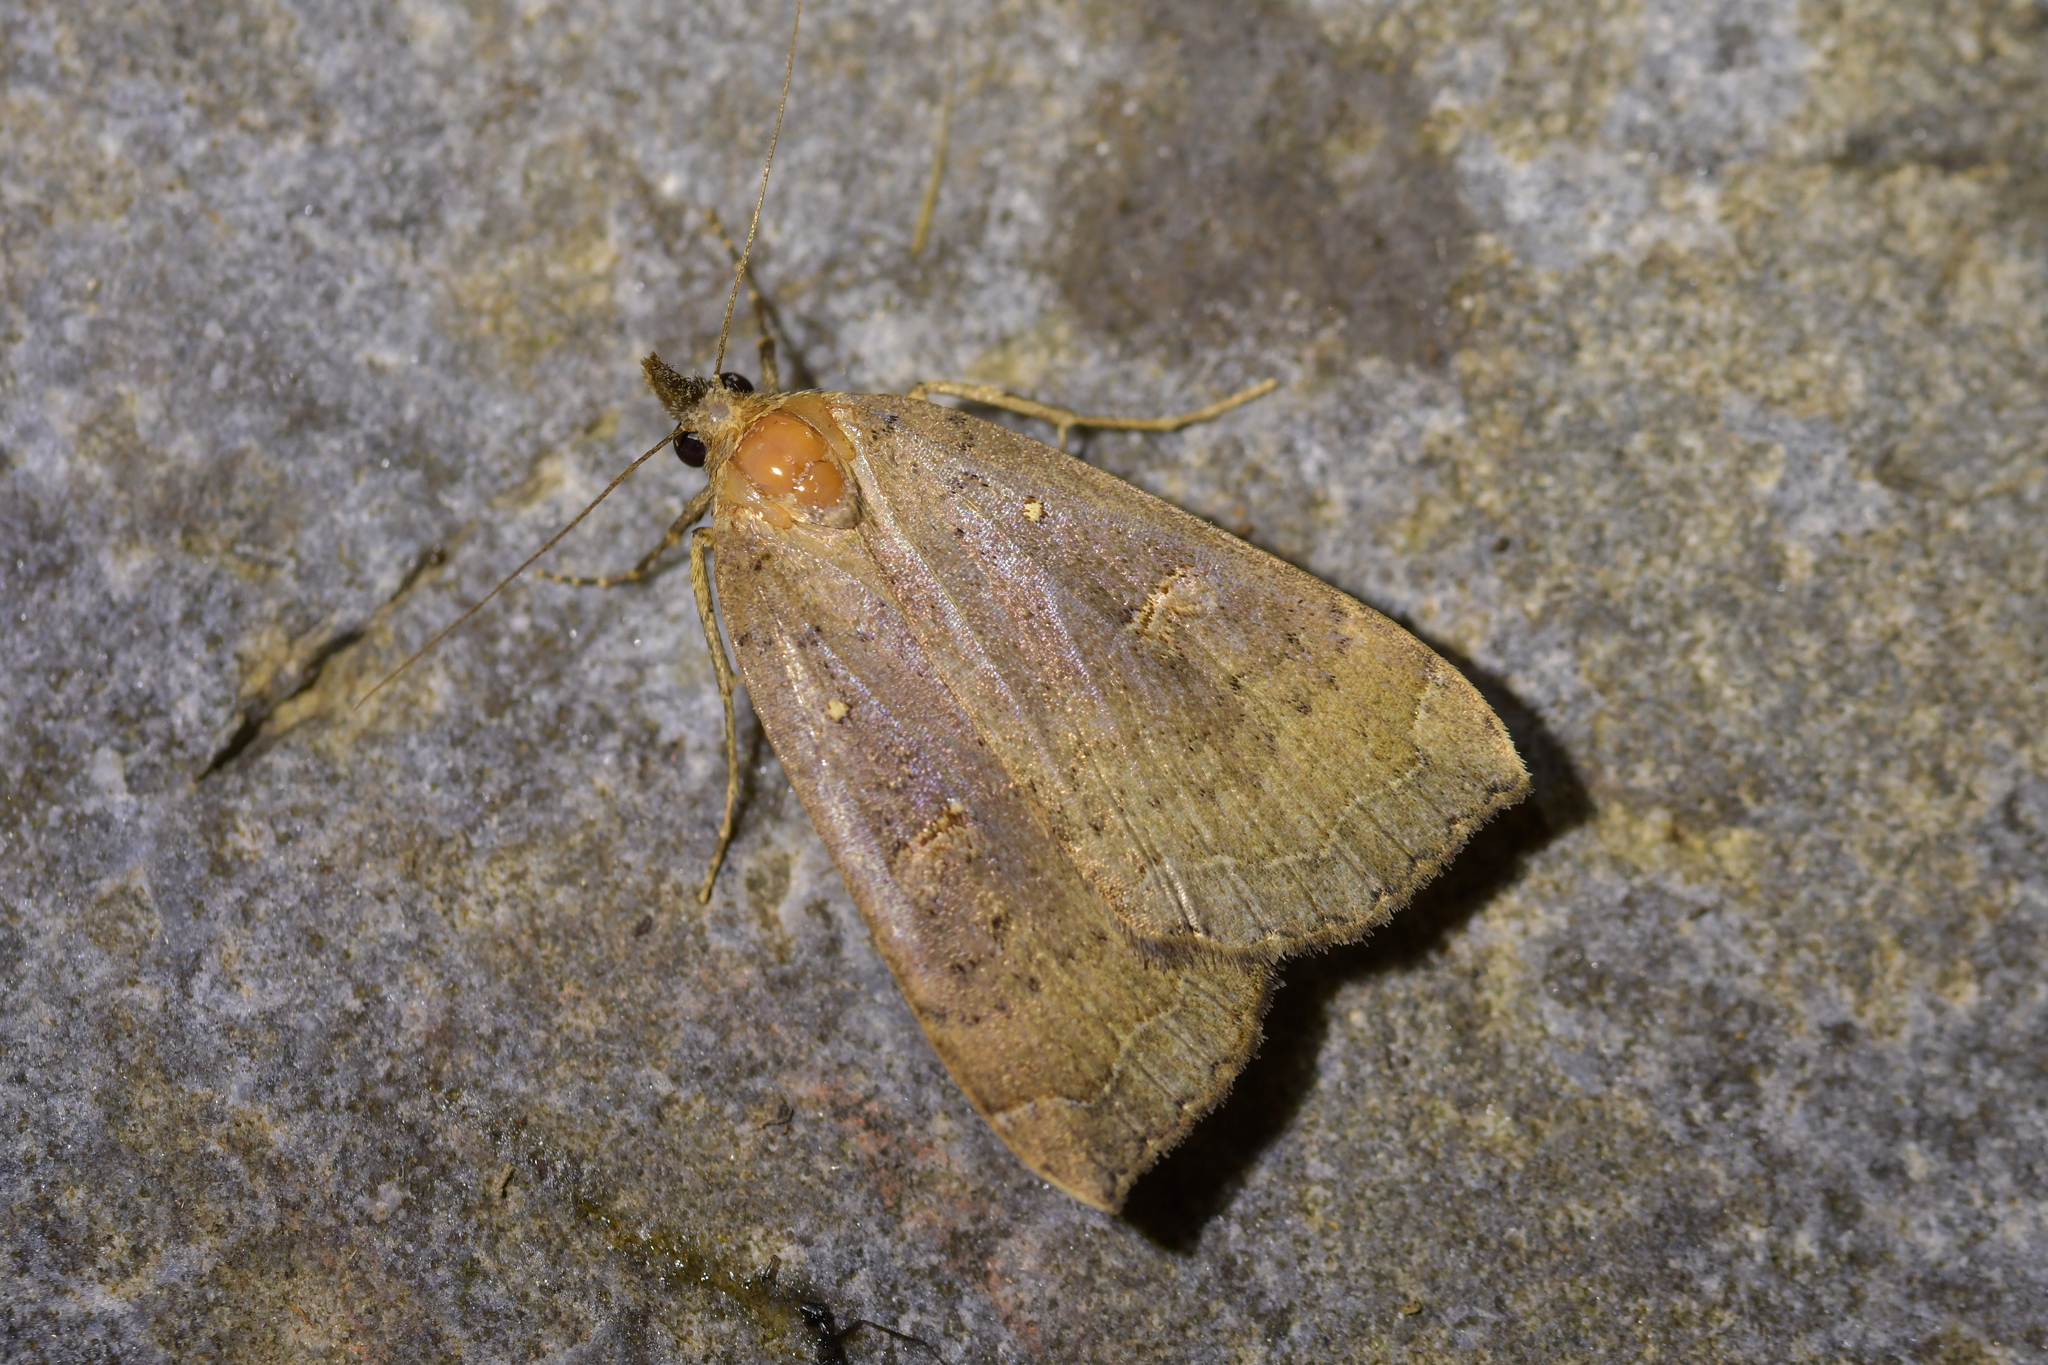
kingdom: Animalia
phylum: Arthropoda
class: Insecta
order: Lepidoptera
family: Erebidae
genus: Rhapsa
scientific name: Rhapsa scotosialis
